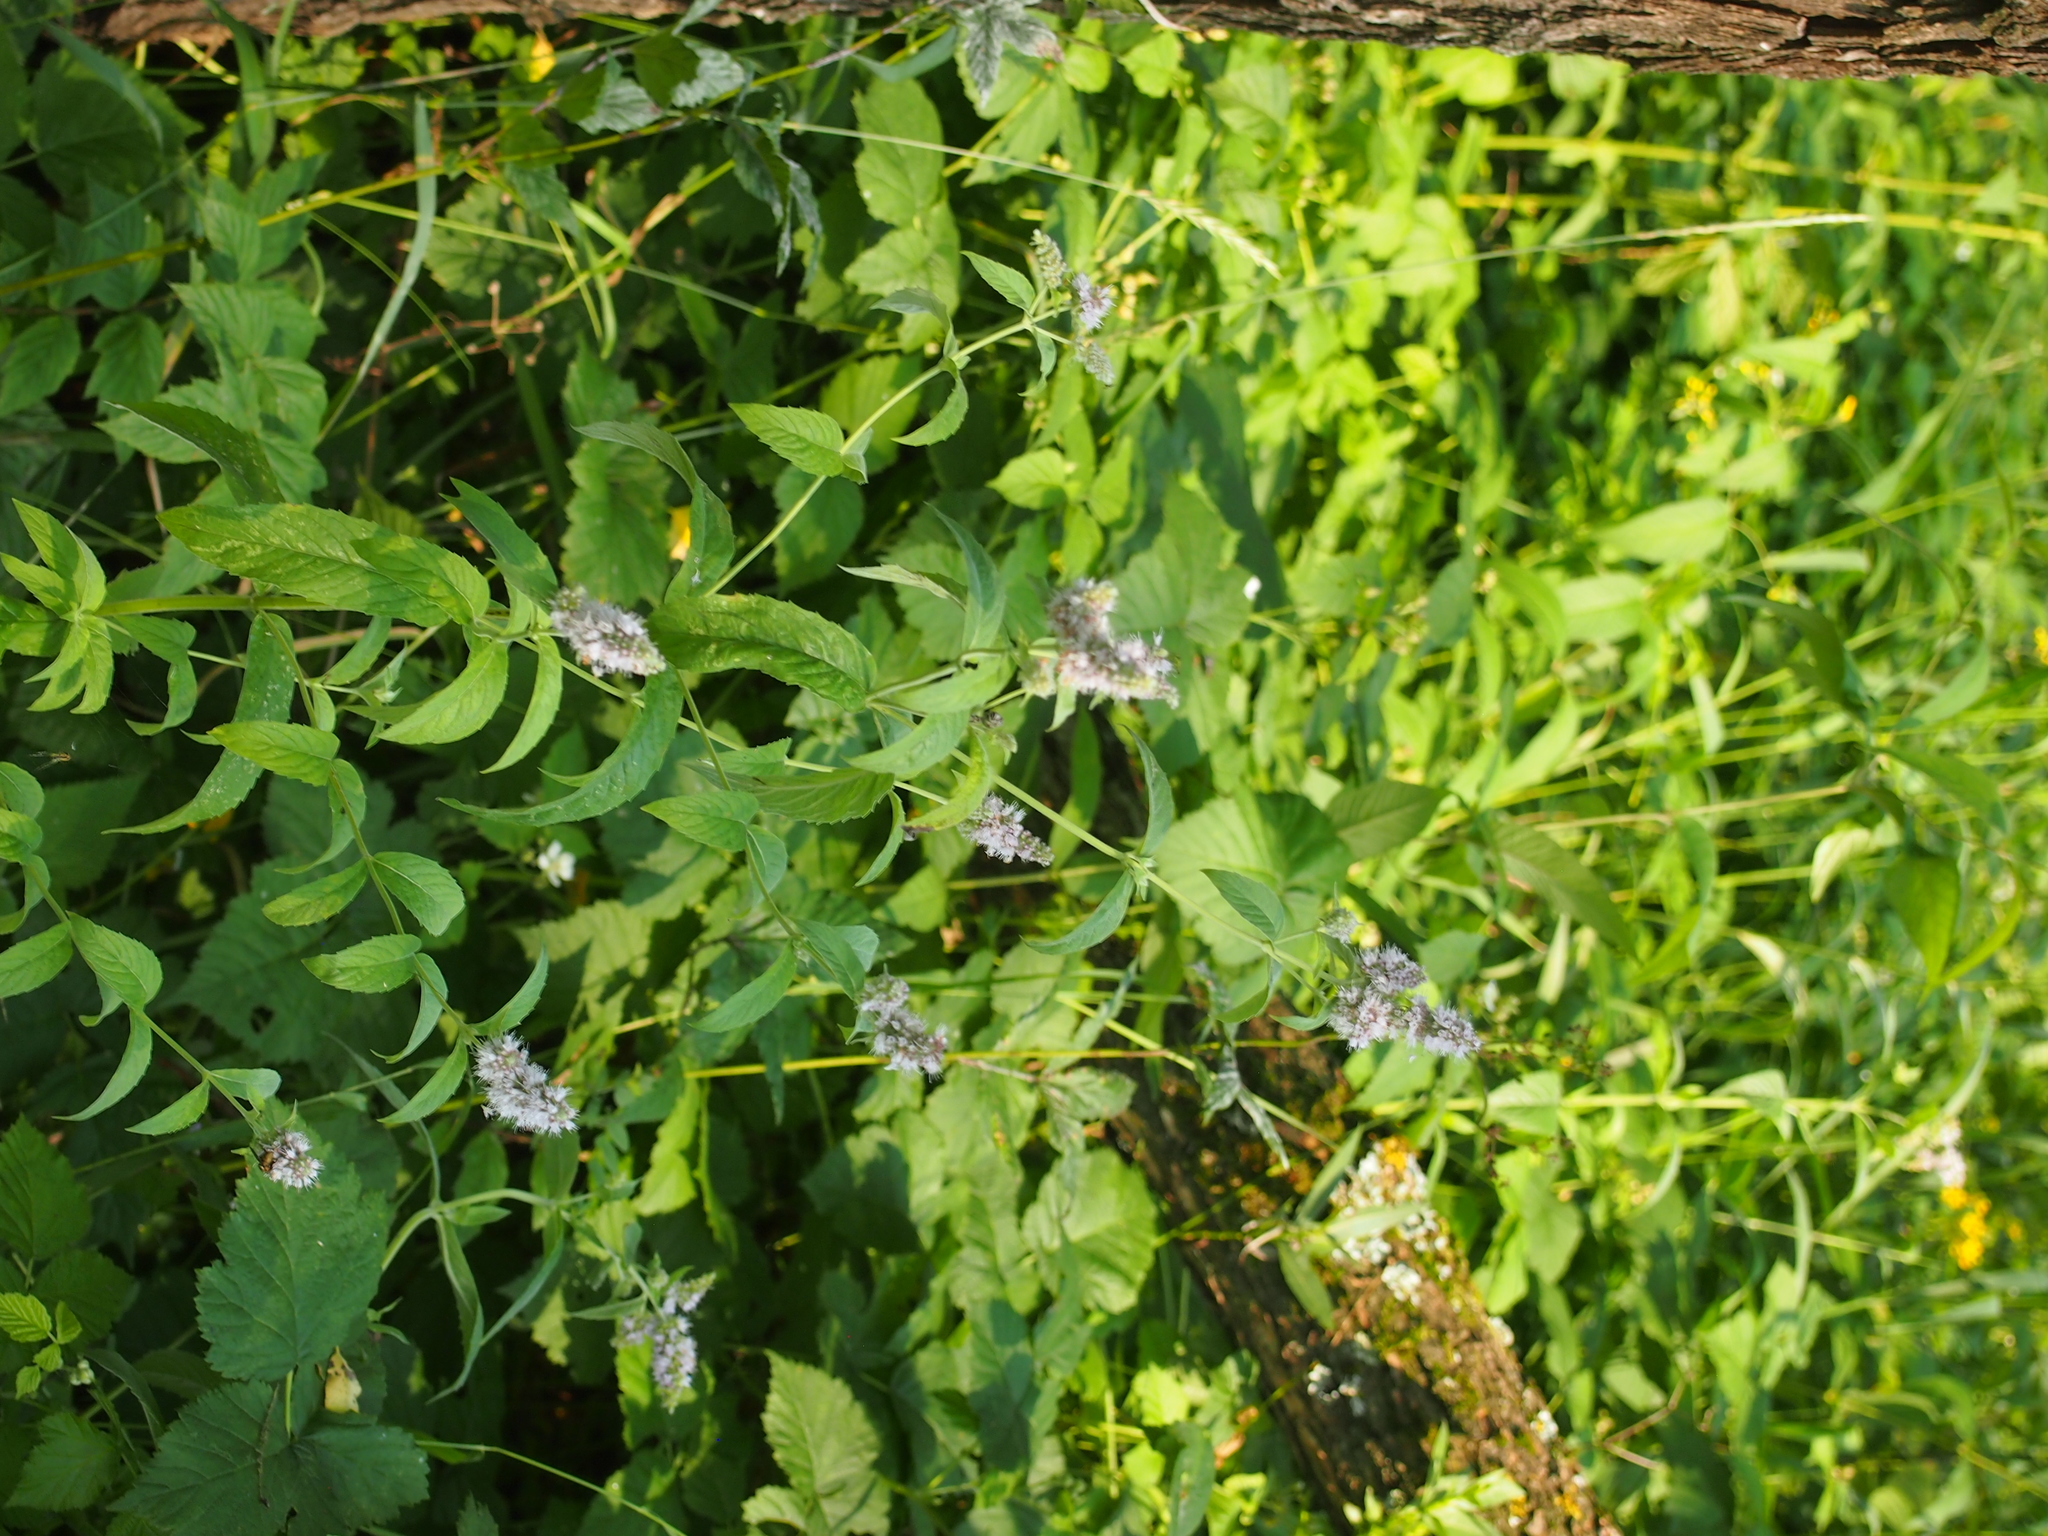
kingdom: Plantae
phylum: Tracheophyta
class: Magnoliopsida
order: Lamiales
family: Lamiaceae
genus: Mentha
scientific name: Mentha longifolia
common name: Horse mint
